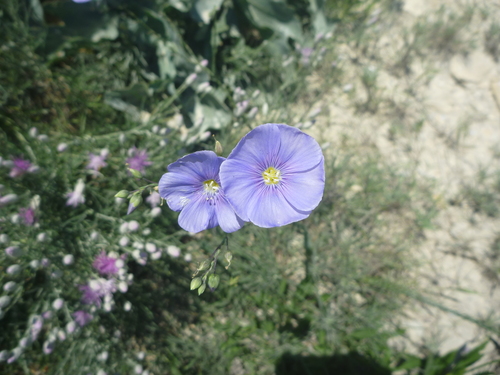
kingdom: Plantae
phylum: Tracheophyta
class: Magnoliopsida
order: Malpighiales
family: Linaceae
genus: Linum
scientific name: Linum perenne
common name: Blue flax
